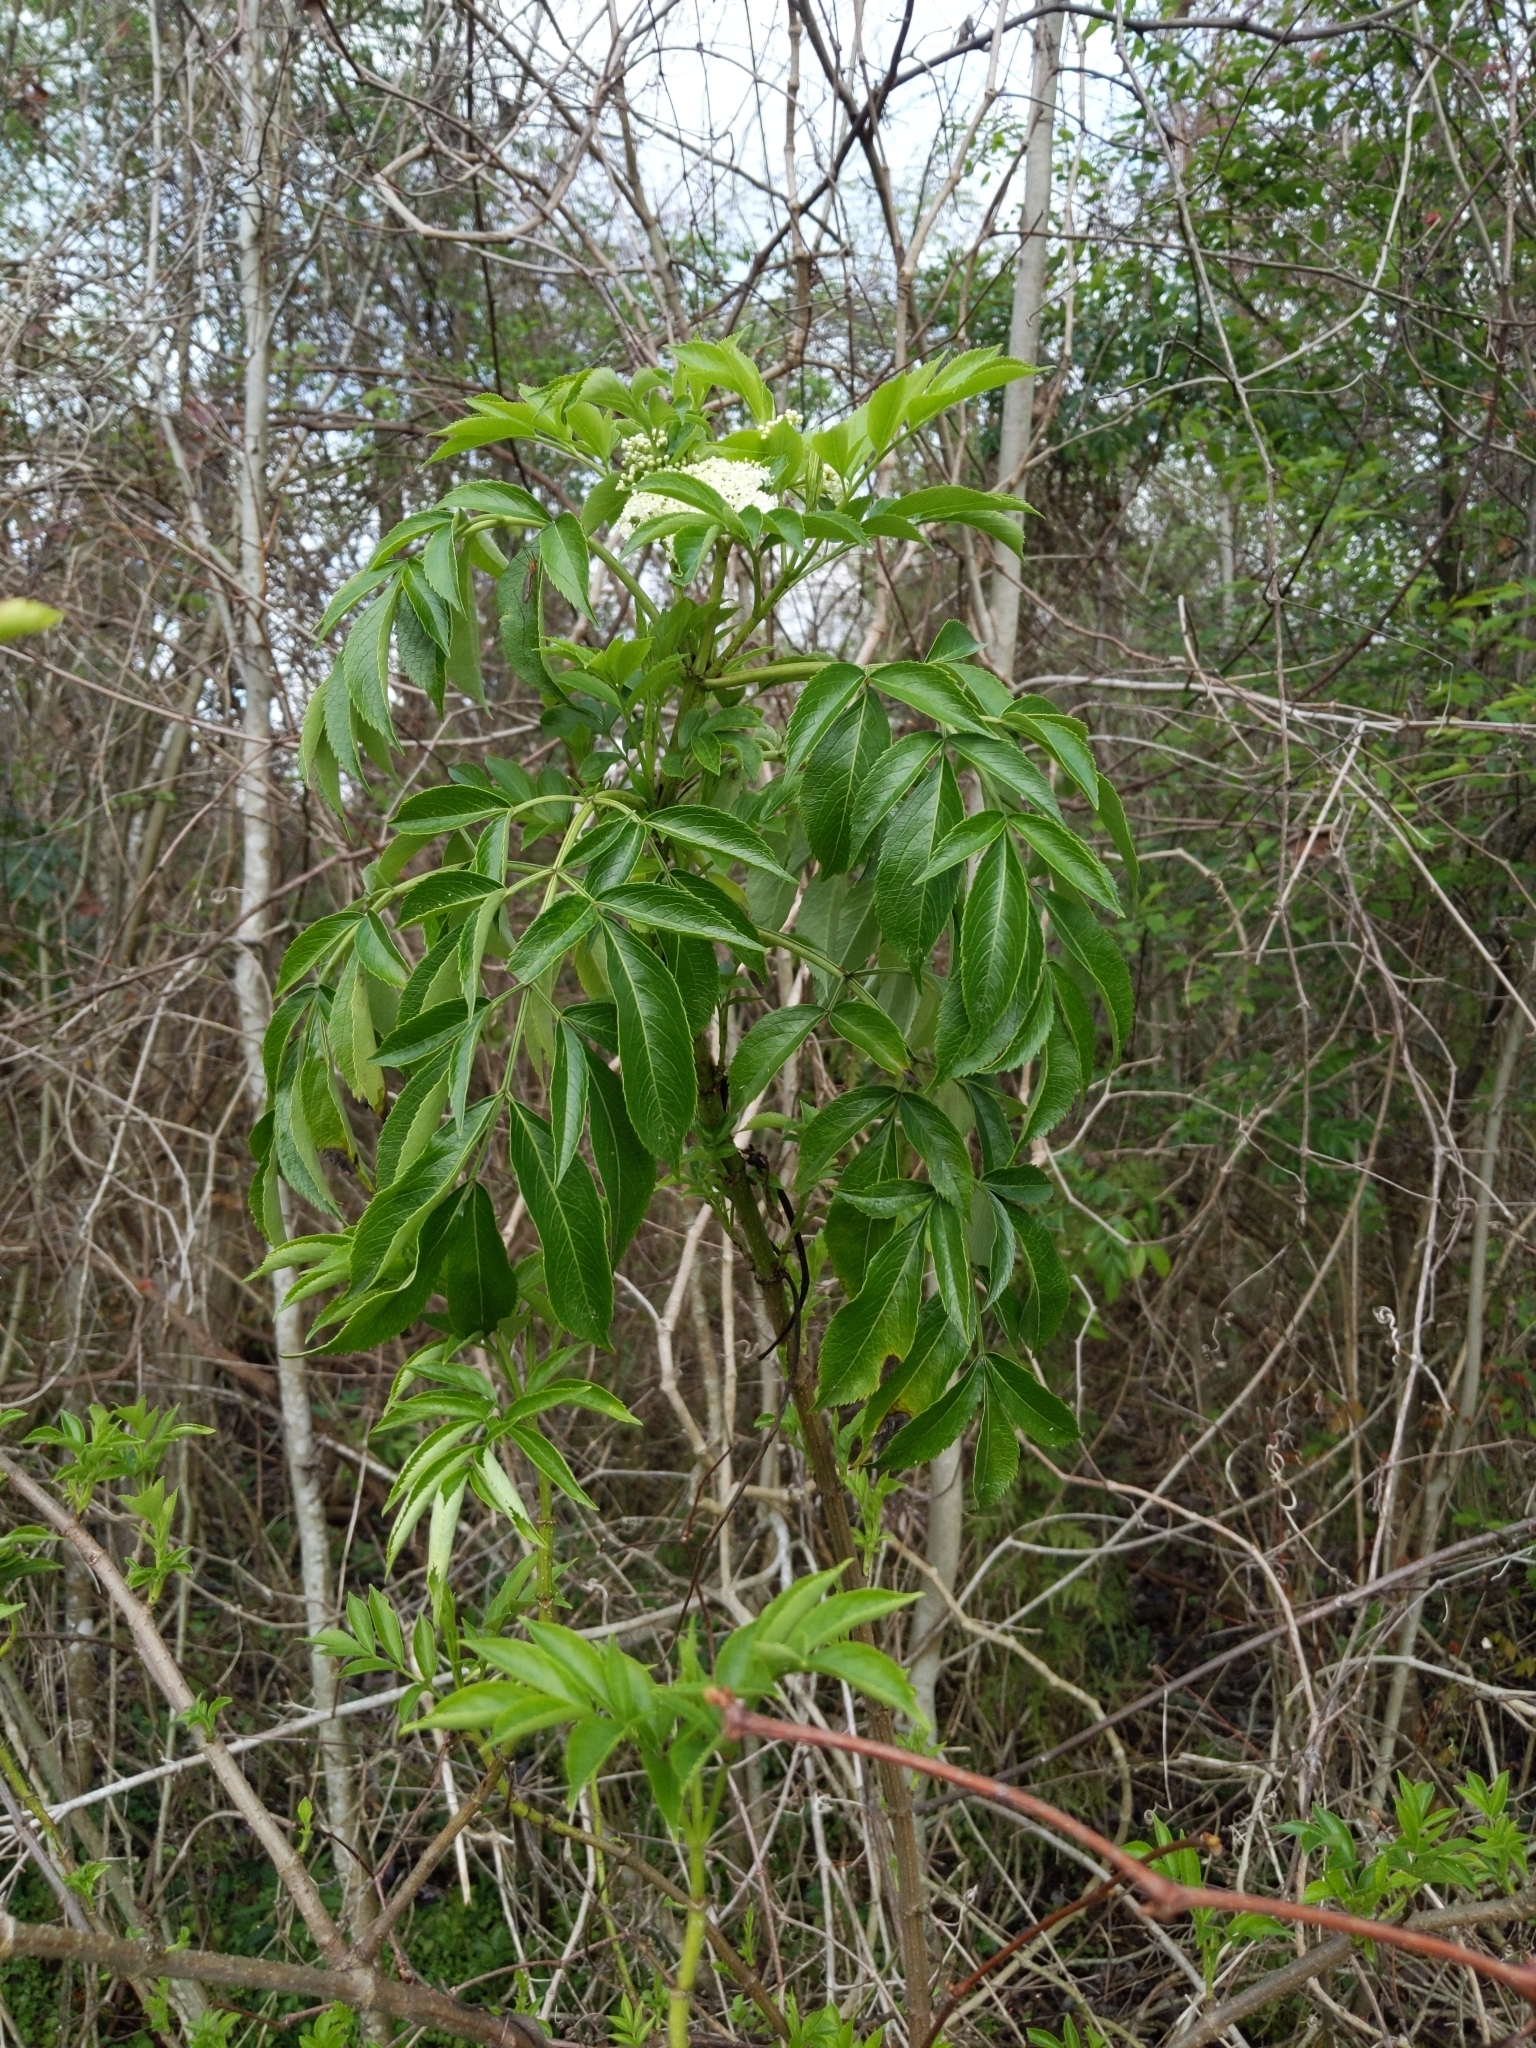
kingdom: Plantae
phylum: Tracheophyta
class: Magnoliopsida
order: Dipsacales
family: Viburnaceae
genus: Sambucus
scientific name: Sambucus canadensis
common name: American elder
